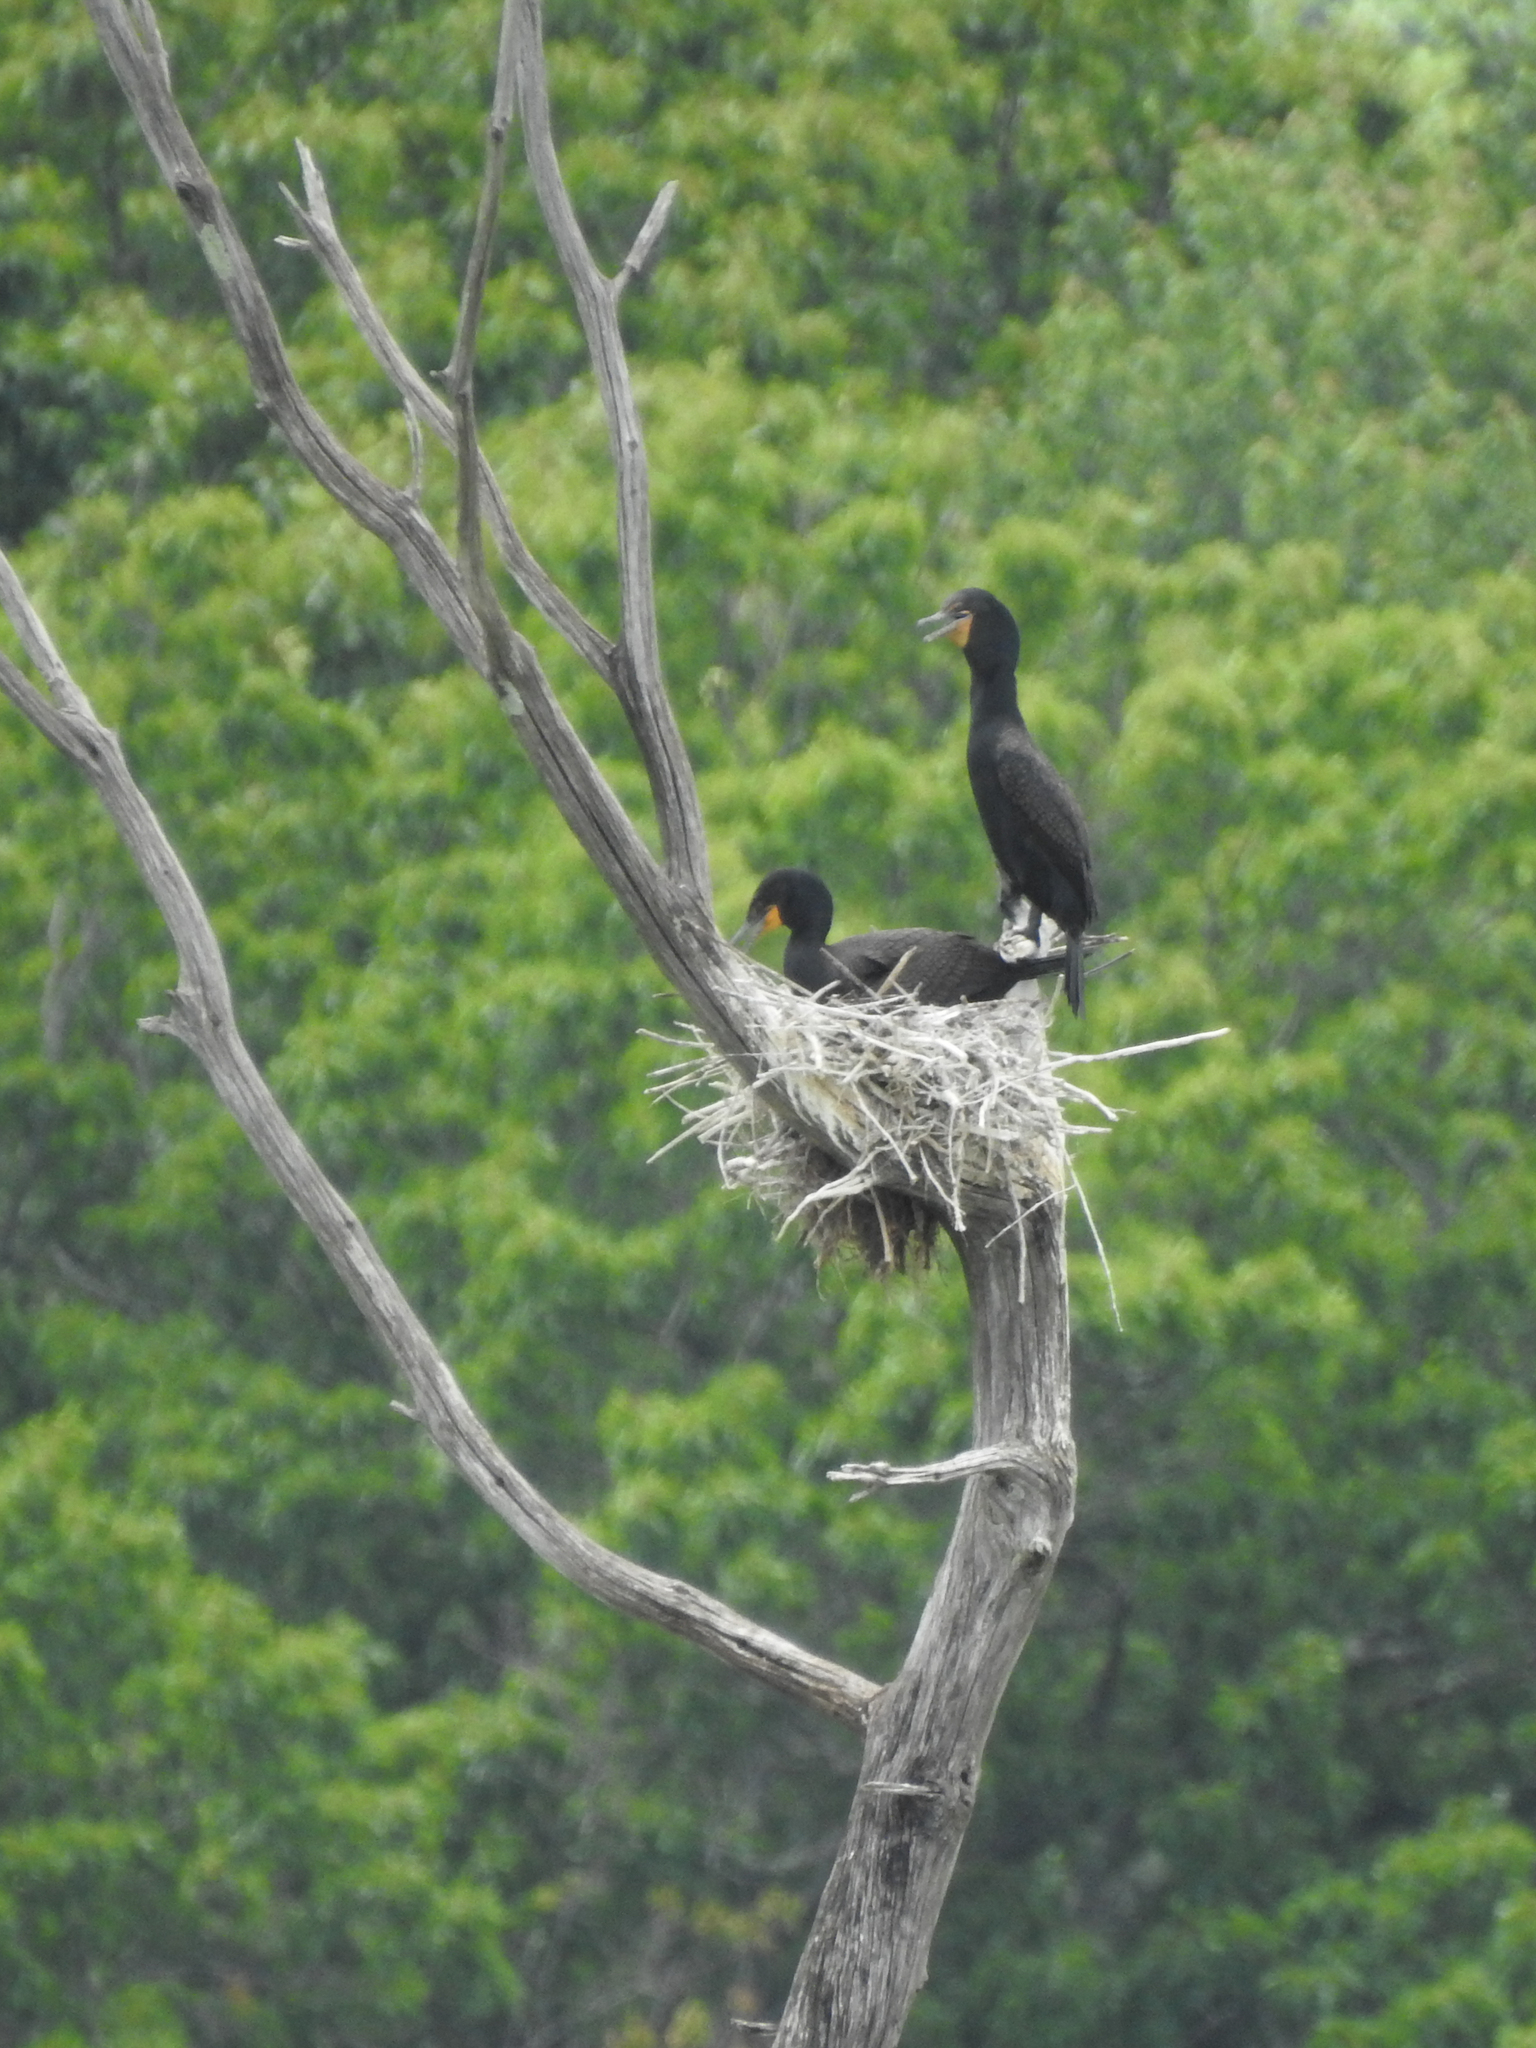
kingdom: Animalia
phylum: Chordata
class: Aves
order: Suliformes
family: Phalacrocoracidae
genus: Phalacrocorax
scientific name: Phalacrocorax auritus
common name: Double-crested cormorant
